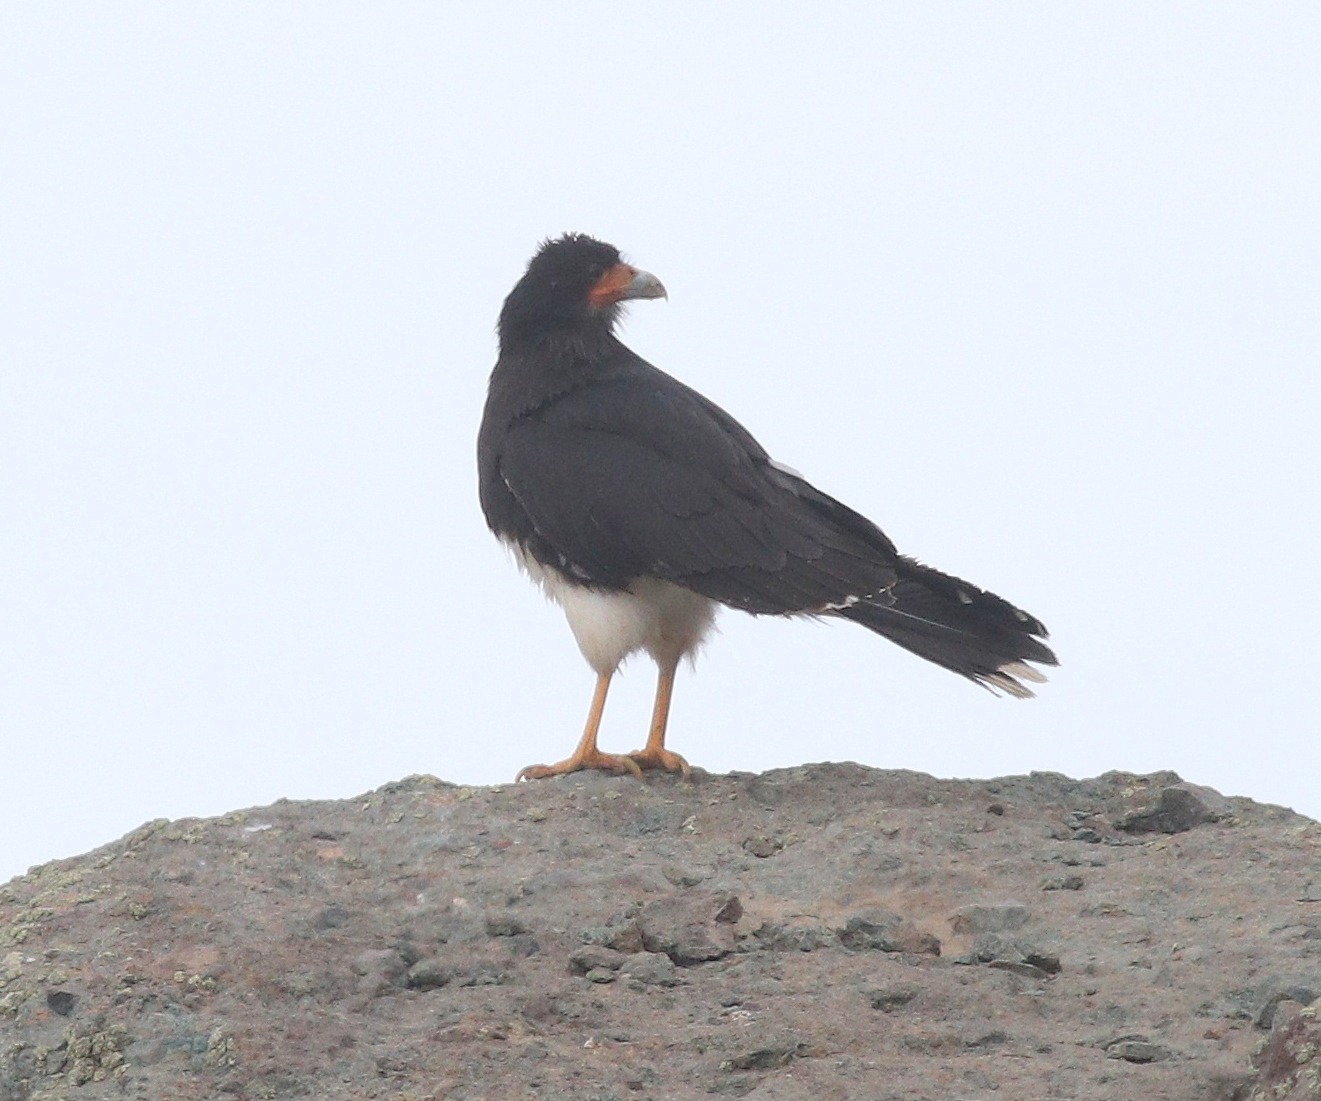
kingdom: Animalia
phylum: Chordata
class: Aves
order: Falconiformes
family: Falconidae
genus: Daptrius
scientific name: Daptrius
